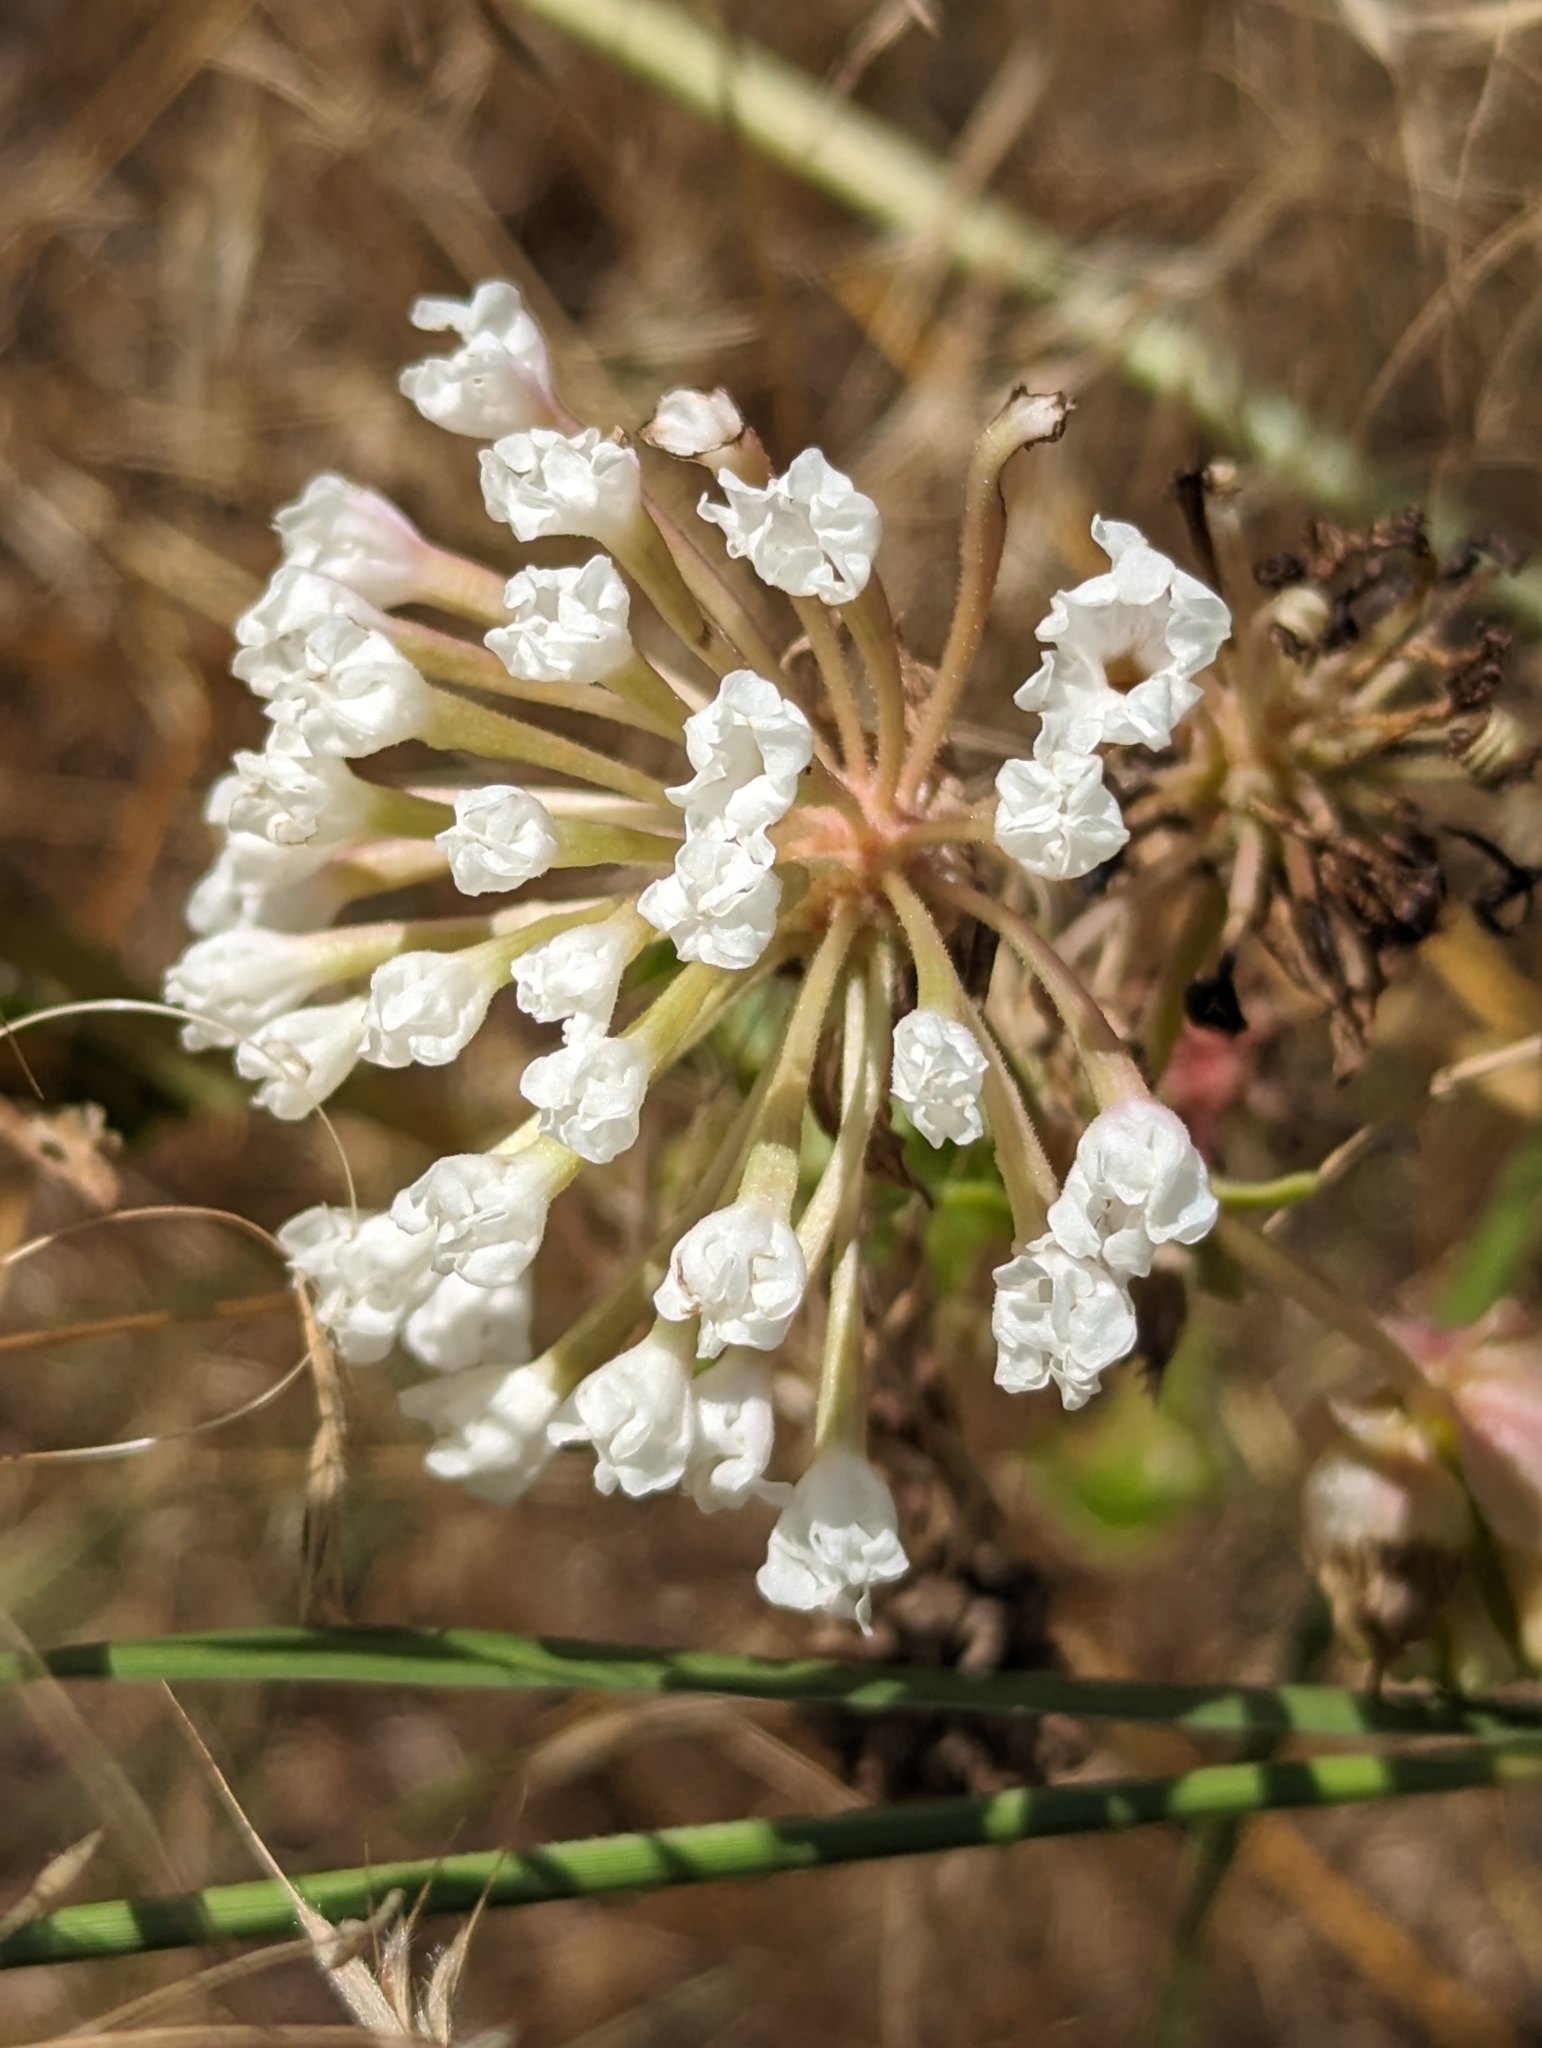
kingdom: Plantae
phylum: Tracheophyta
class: Magnoliopsida
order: Caryophyllales
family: Nyctaginaceae
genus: Abronia
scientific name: Abronia fragrans
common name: Fragrant sand-verbena
